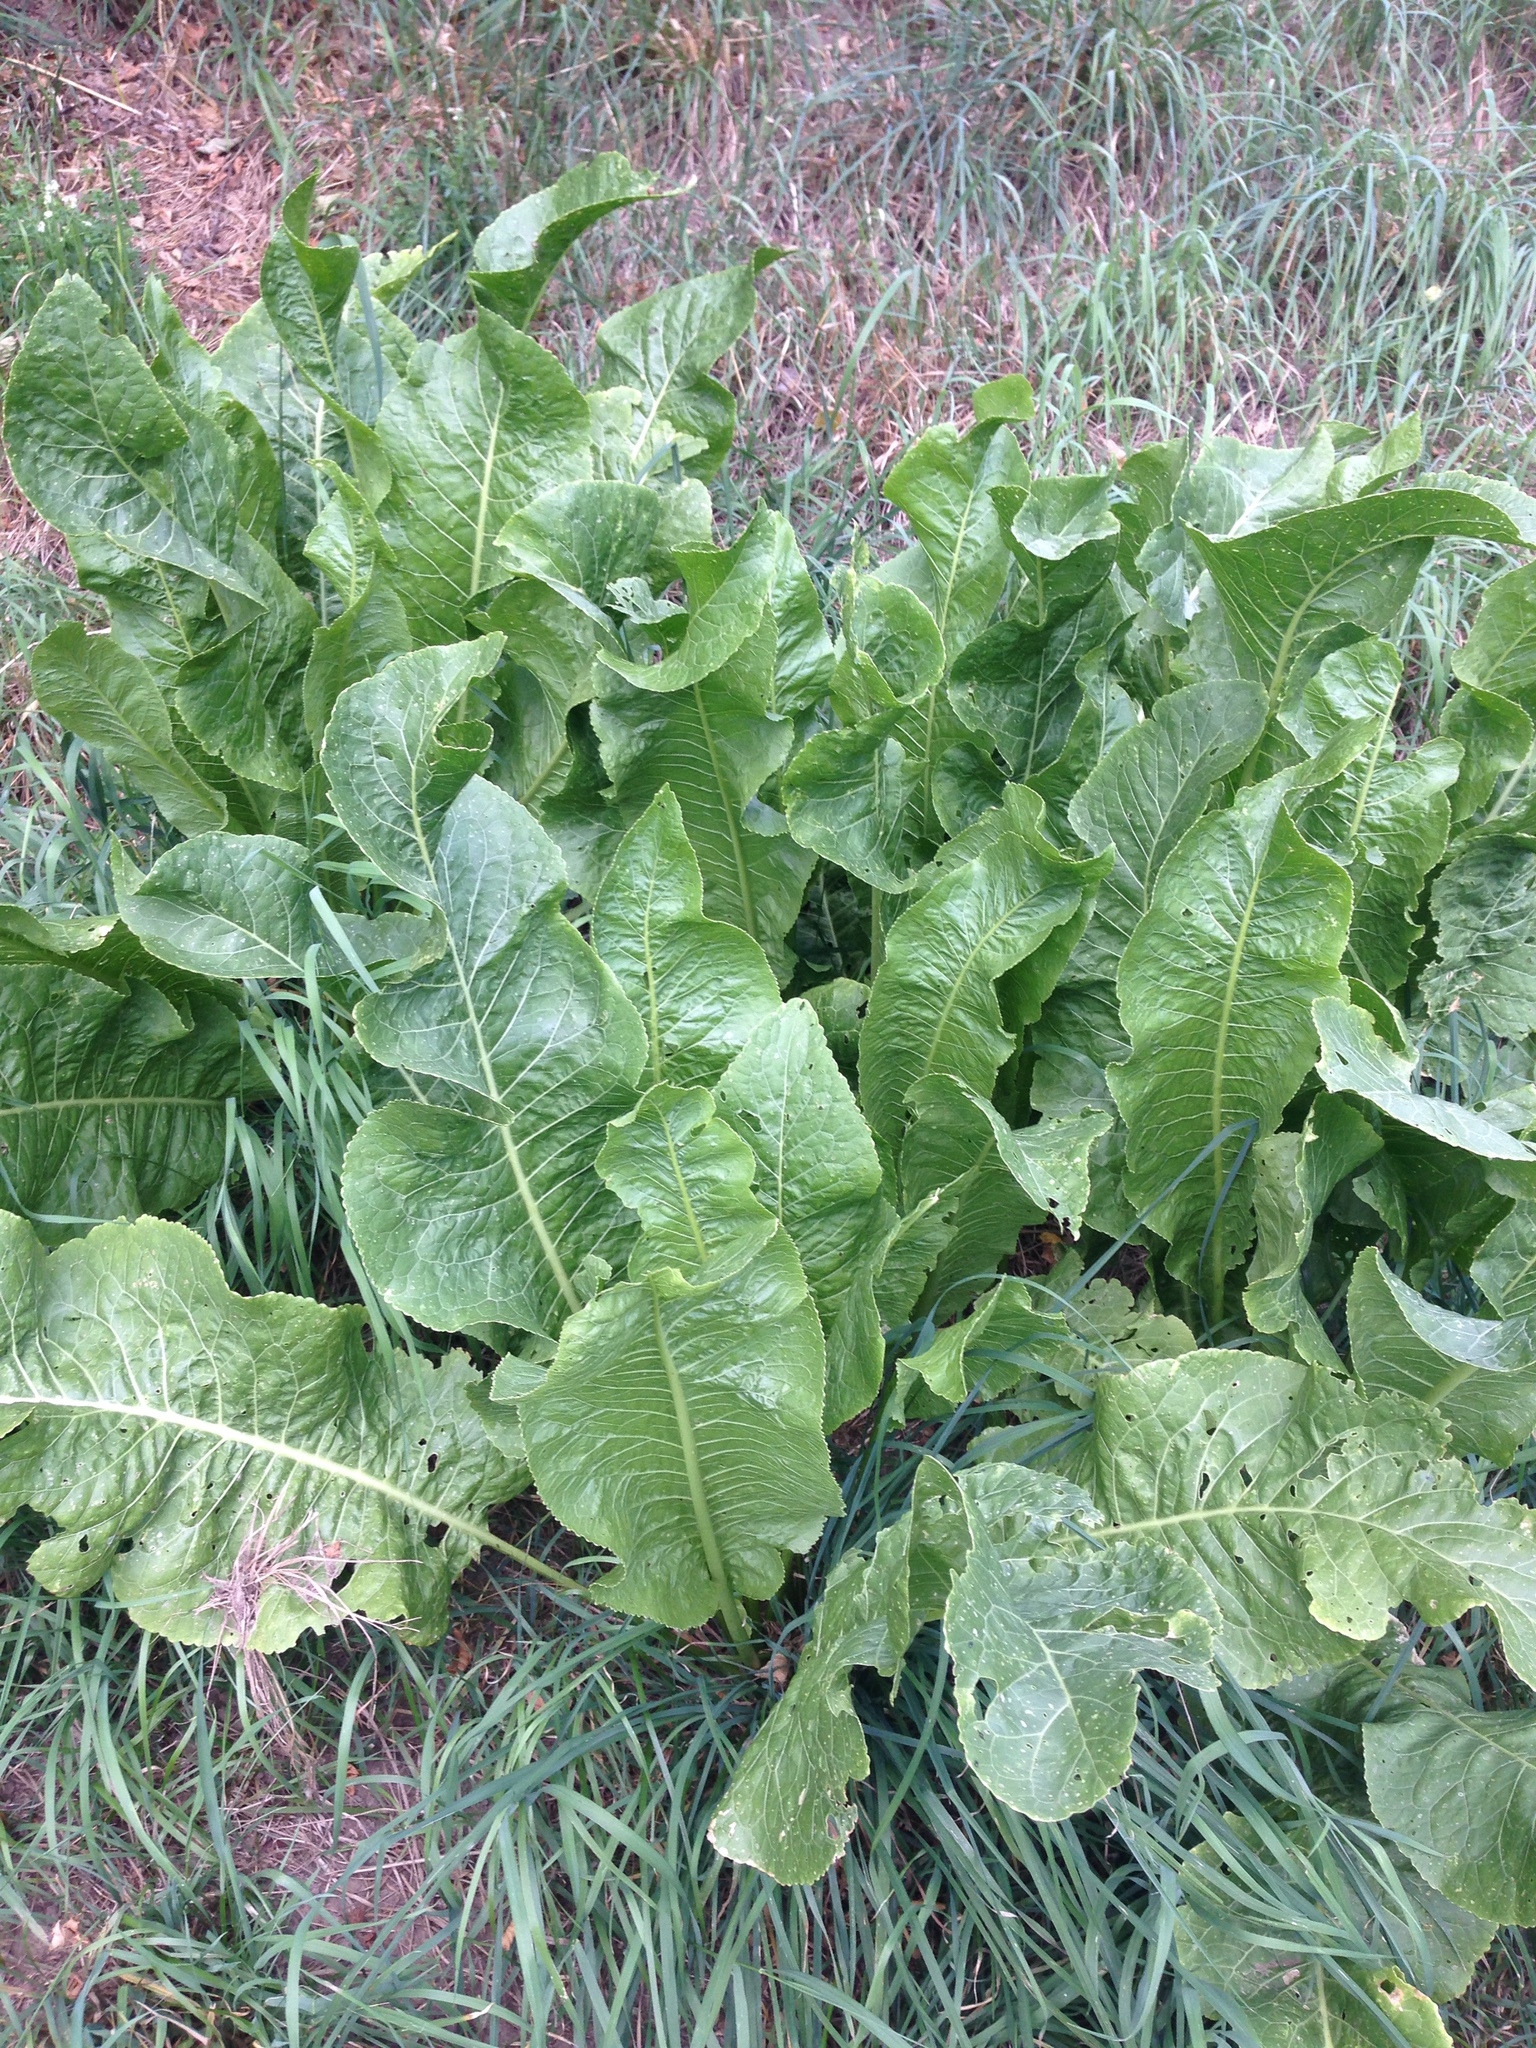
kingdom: Plantae
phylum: Tracheophyta
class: Magnoliopsida
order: Brassicales
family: Brassicaceae
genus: Armoracia
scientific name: Armoracia rusticana
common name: Horseradish
